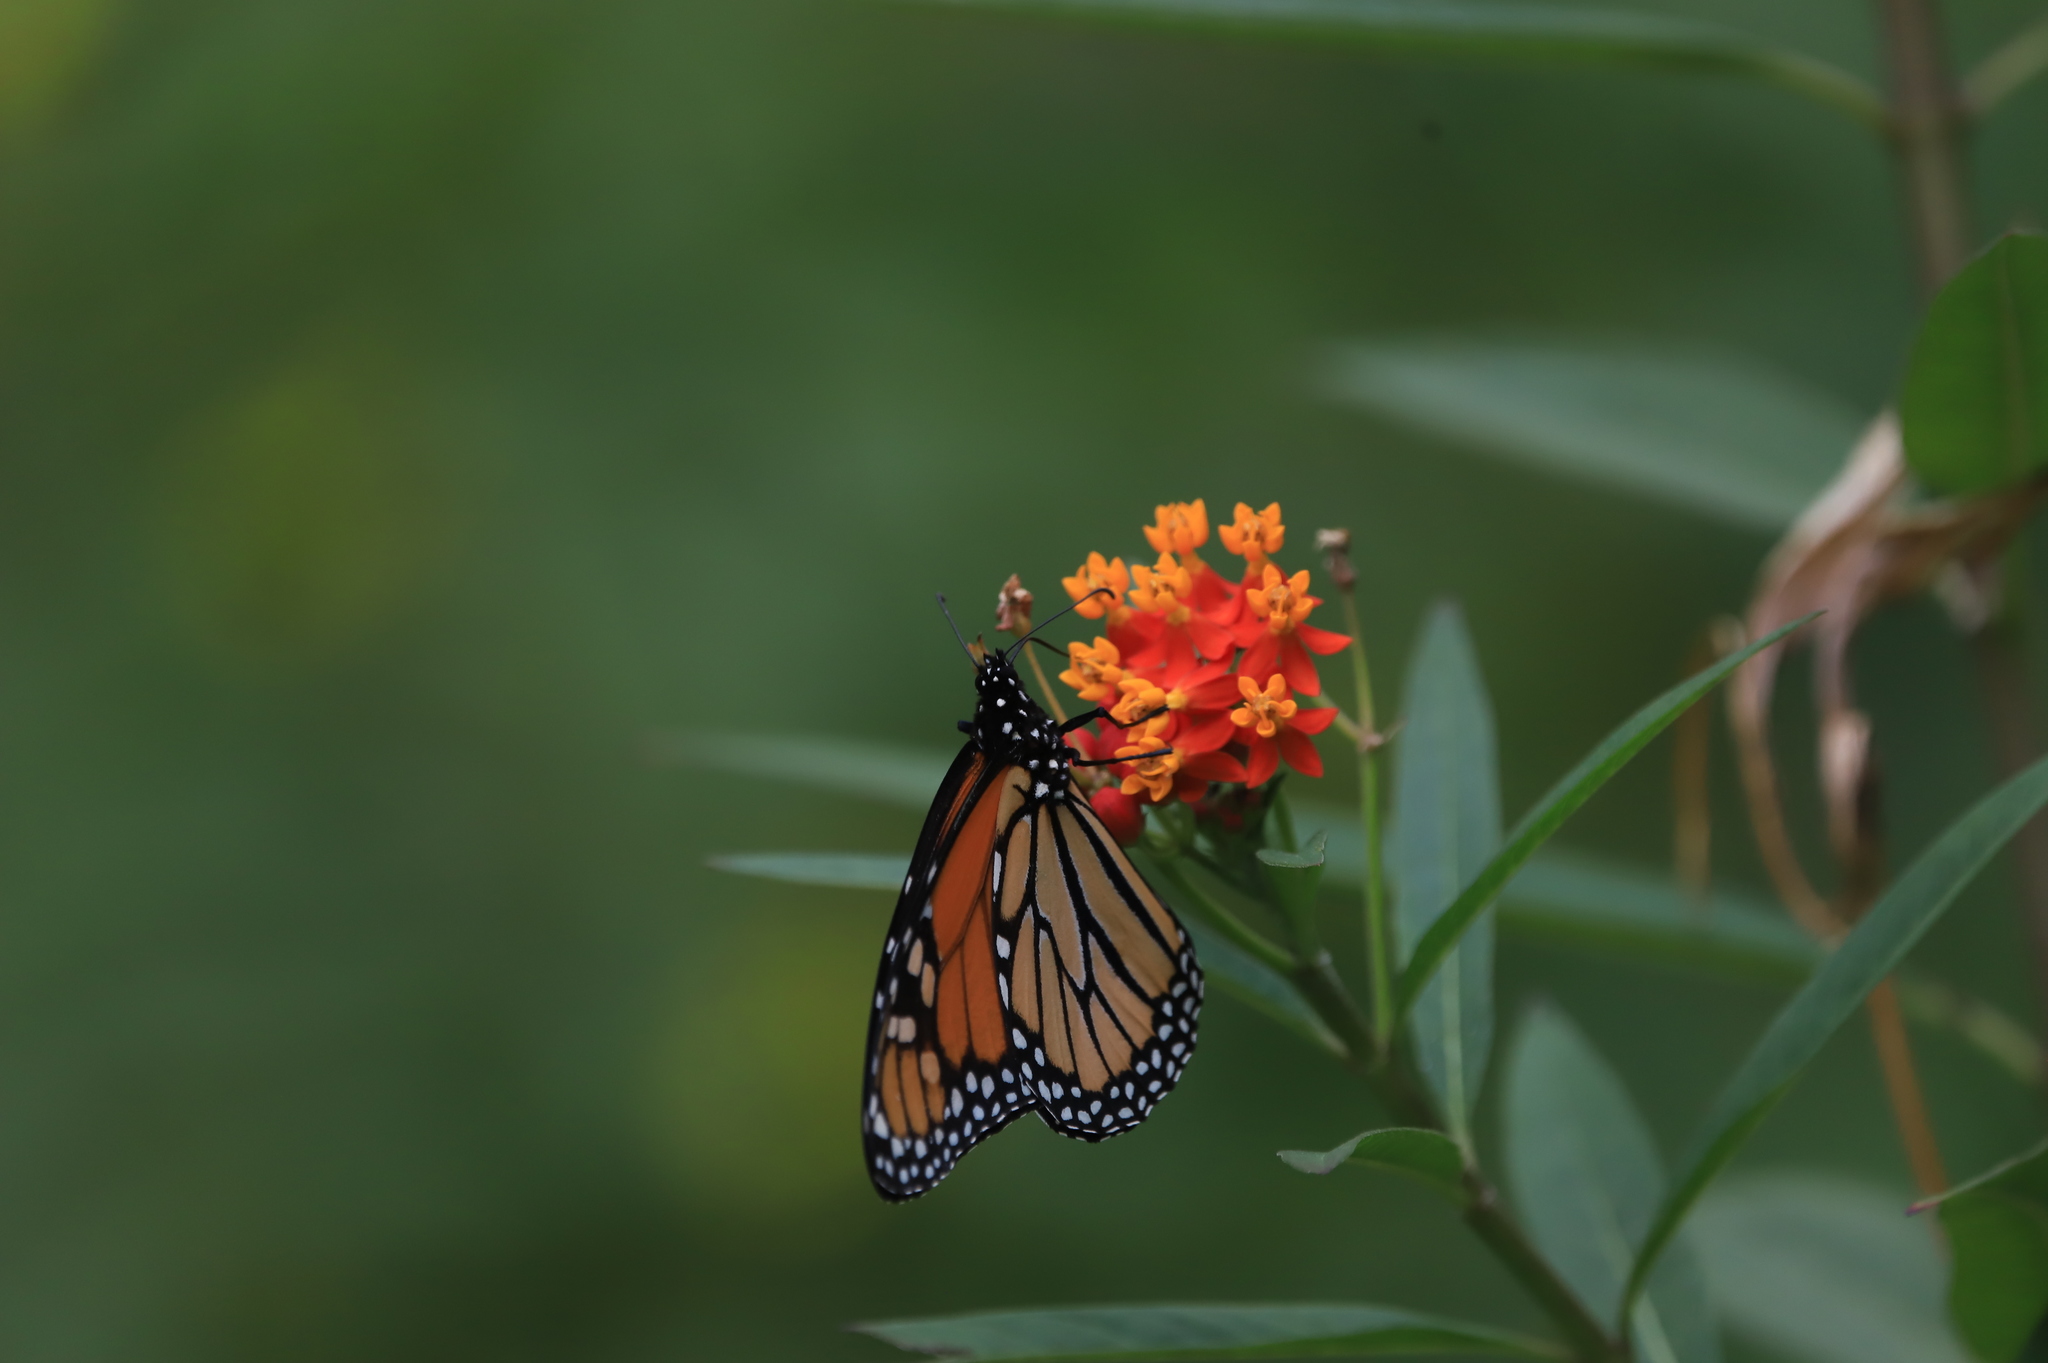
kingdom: Animalia
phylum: Arthropoda
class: Insecta
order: Lepidoptera
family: Nymphalidae
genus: Danaus
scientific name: Danaus plexippus
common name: Monarch
